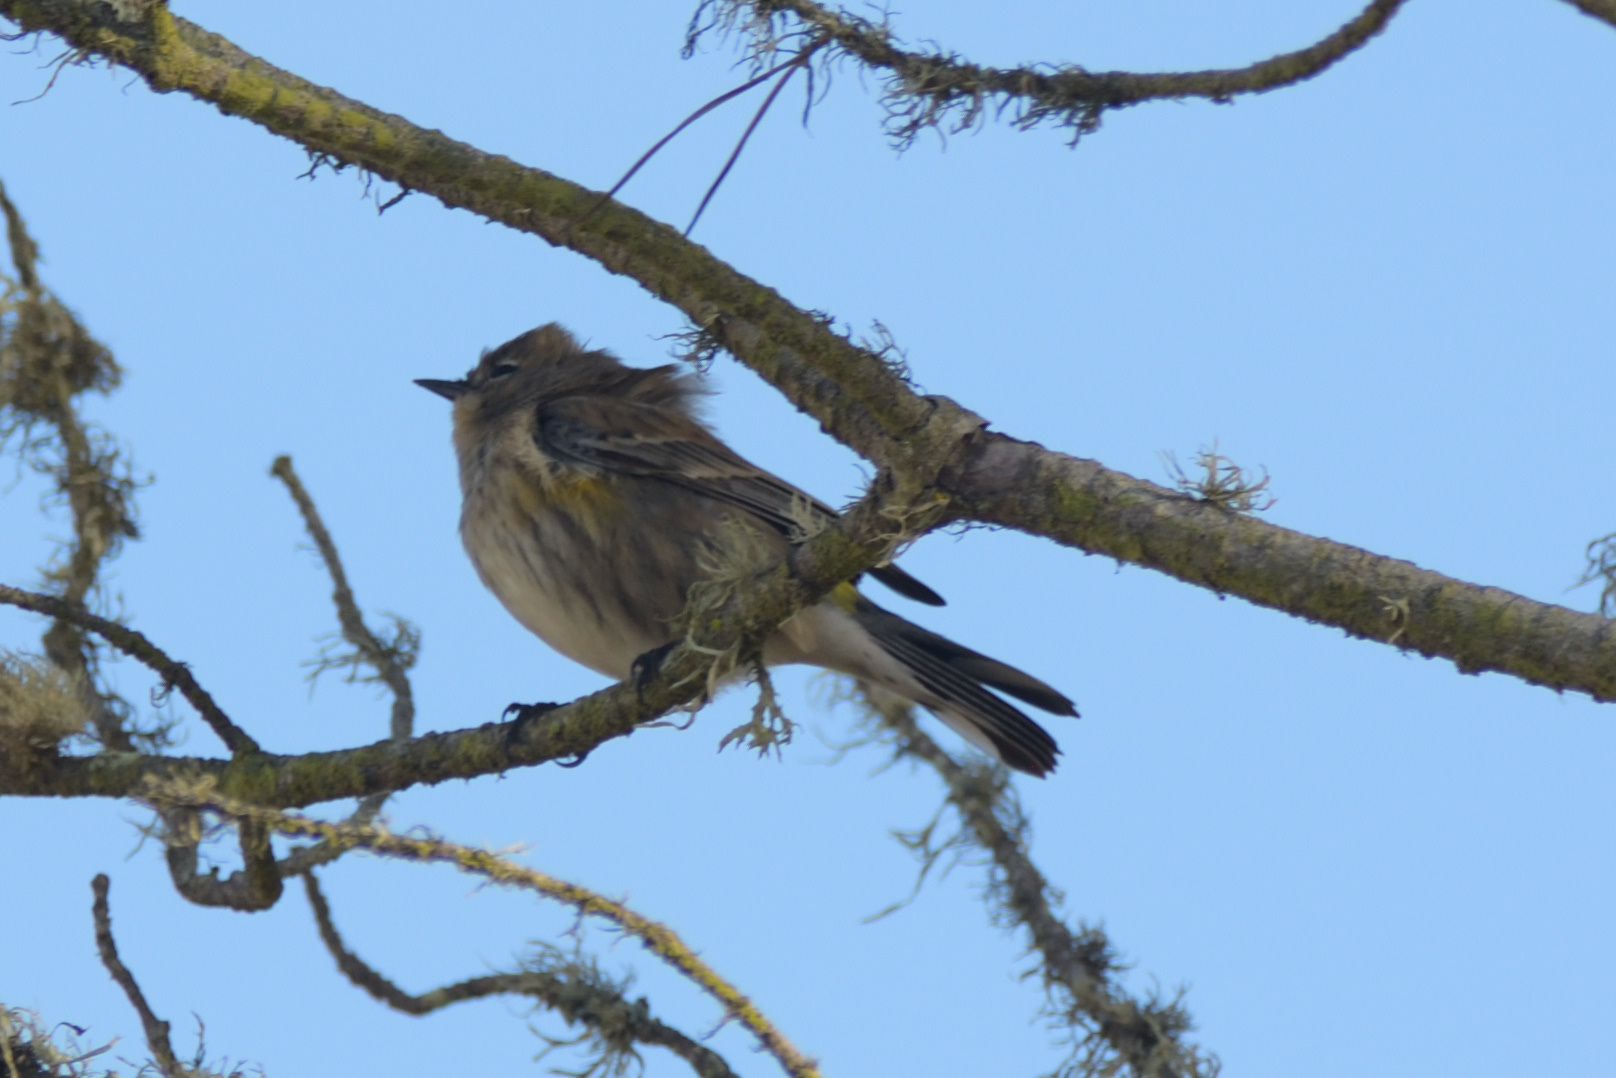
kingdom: Animalia
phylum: Chordata
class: Aves
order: Passeriformes
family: Parulidae
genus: Setophaga
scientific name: Setophaga coronata
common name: Myrtle warbler
